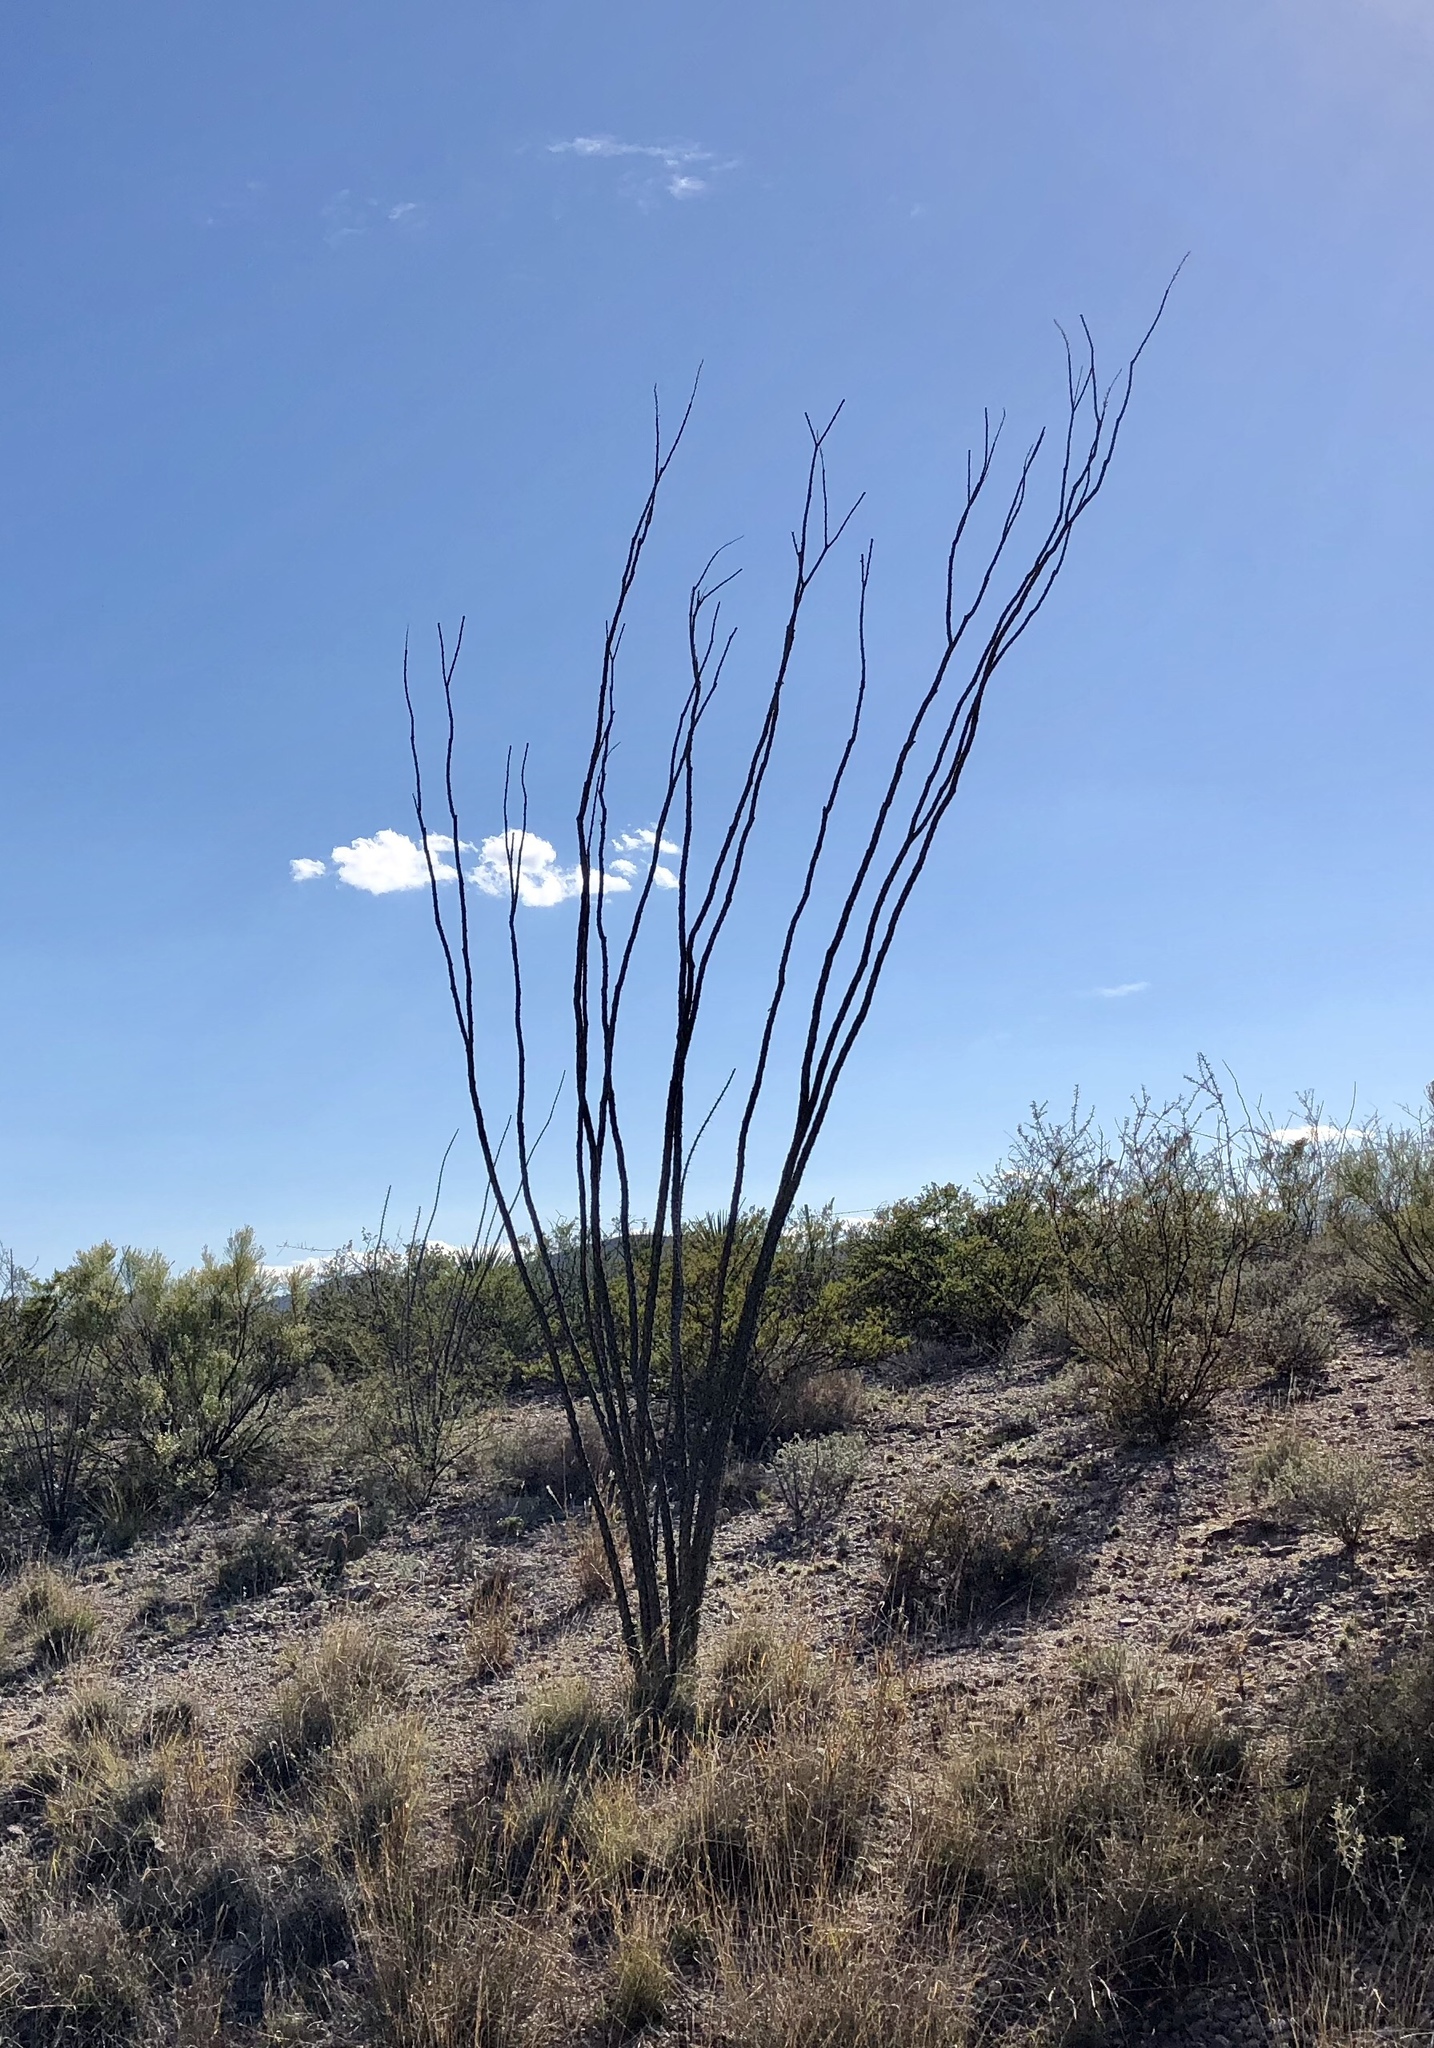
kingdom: Plantae
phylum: Tracheophyta
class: Magnoliopsida
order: Ericales
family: Fouquieriaceae
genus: Fouquieria
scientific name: Fouquieria splendens
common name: Vine-cactus
